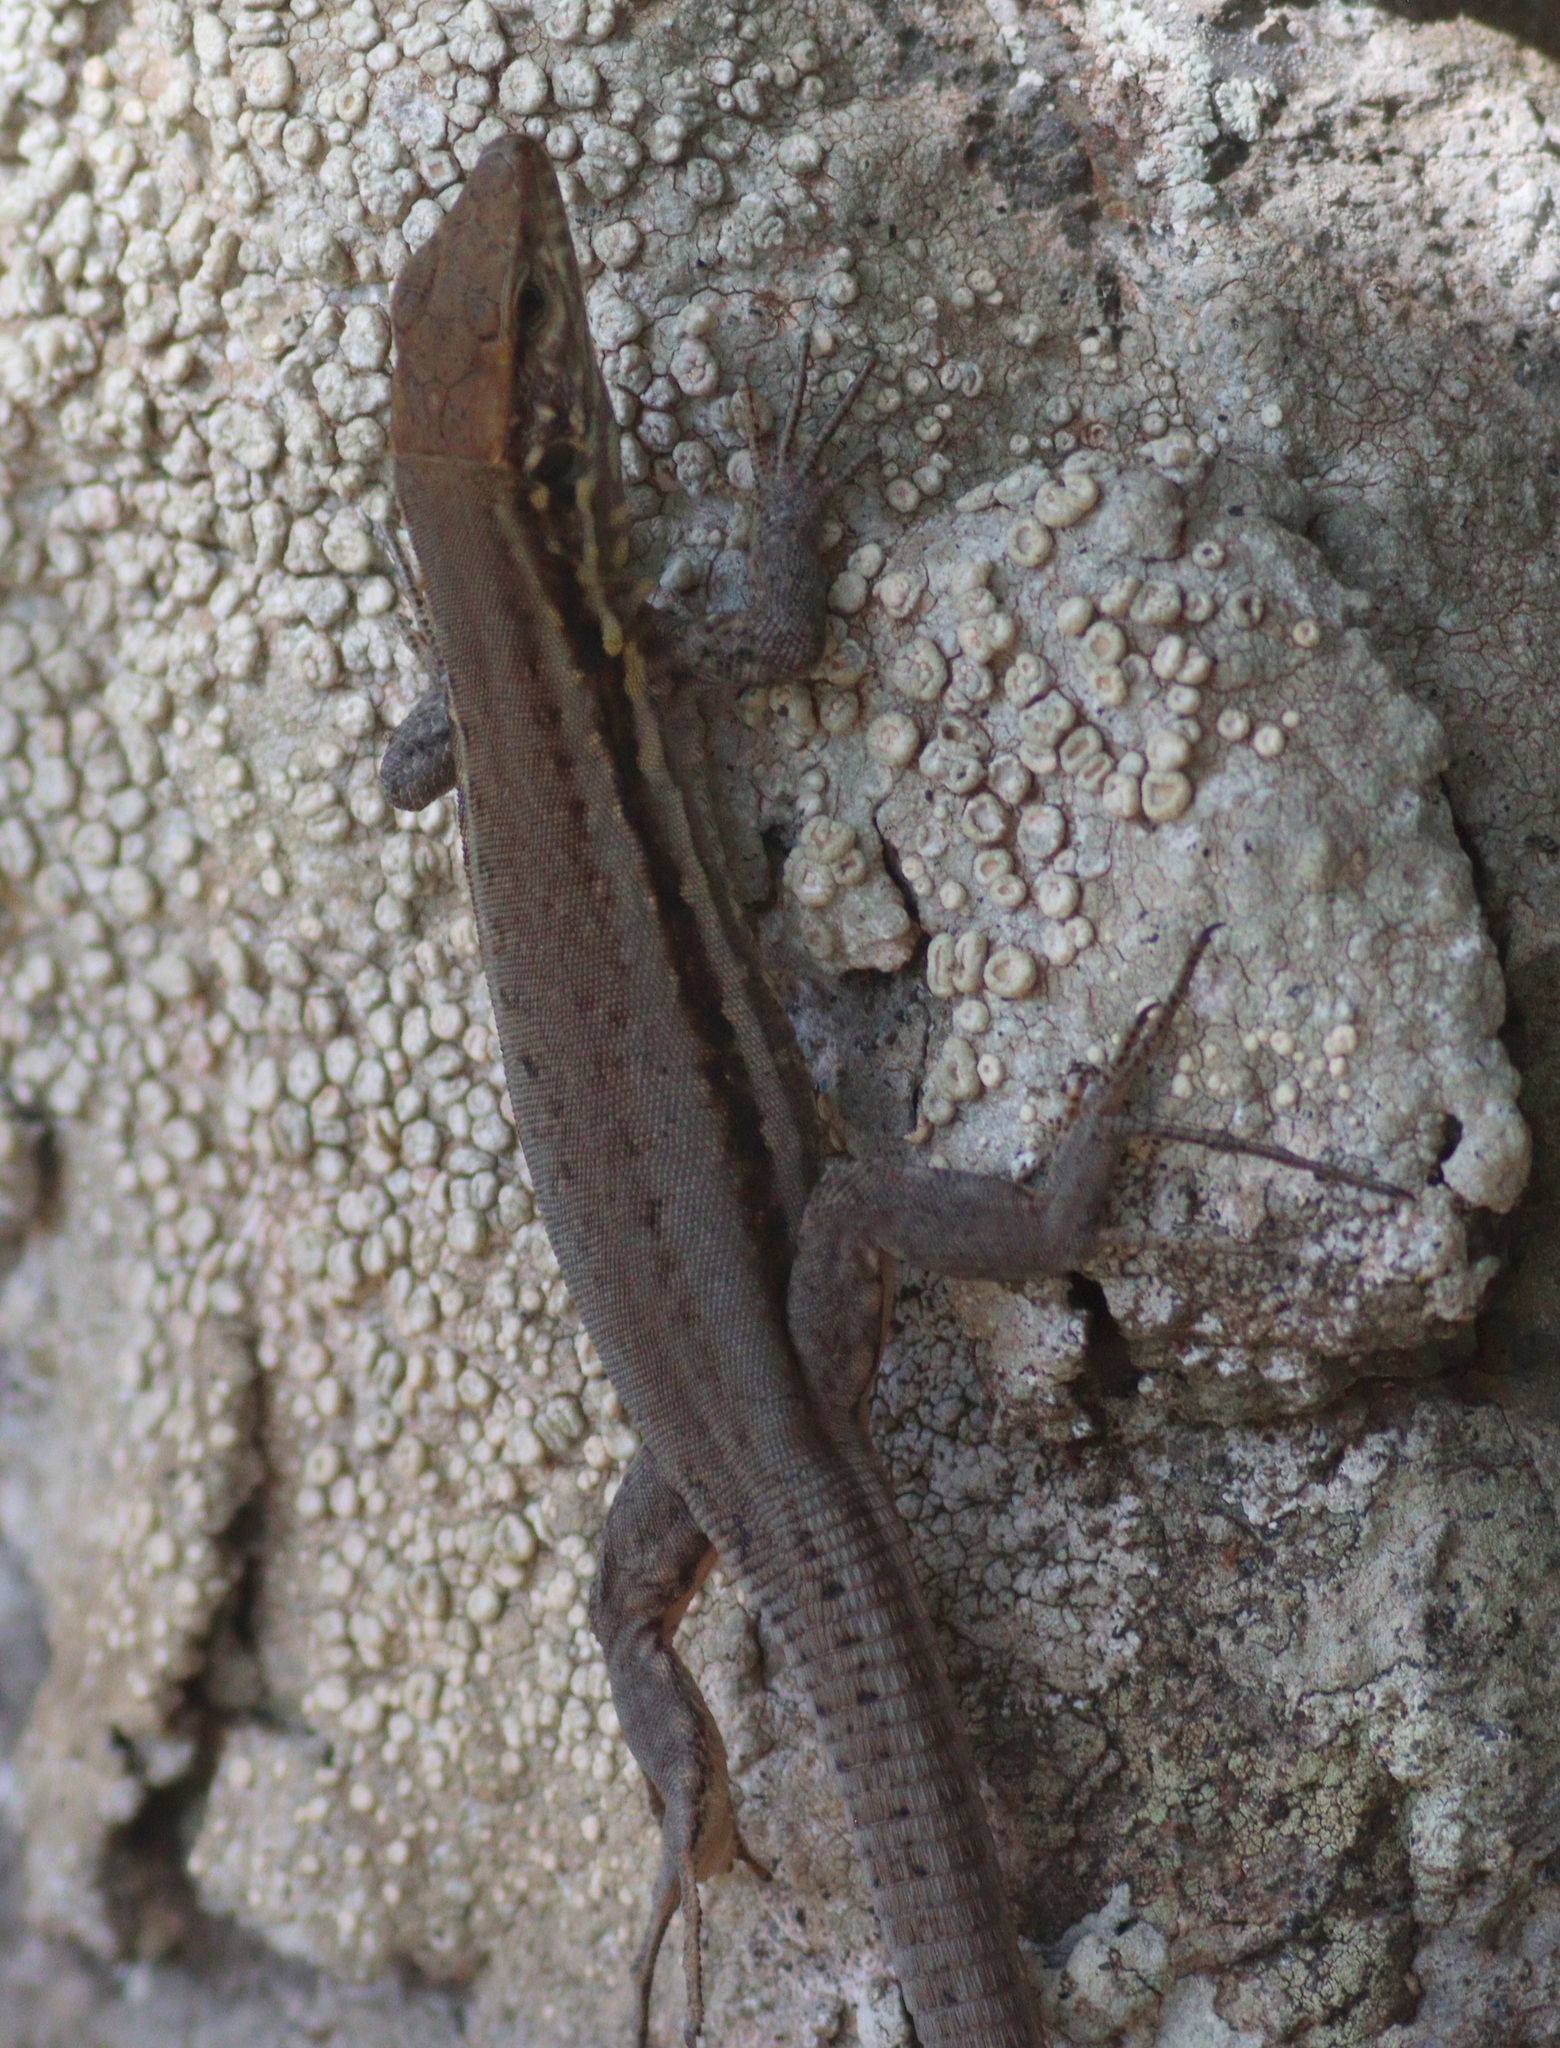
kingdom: Animalia
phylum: Chordata
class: Squamata
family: Lacertidae
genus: Gallotia
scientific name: Gallotia galloti
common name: Gallot's lizard
